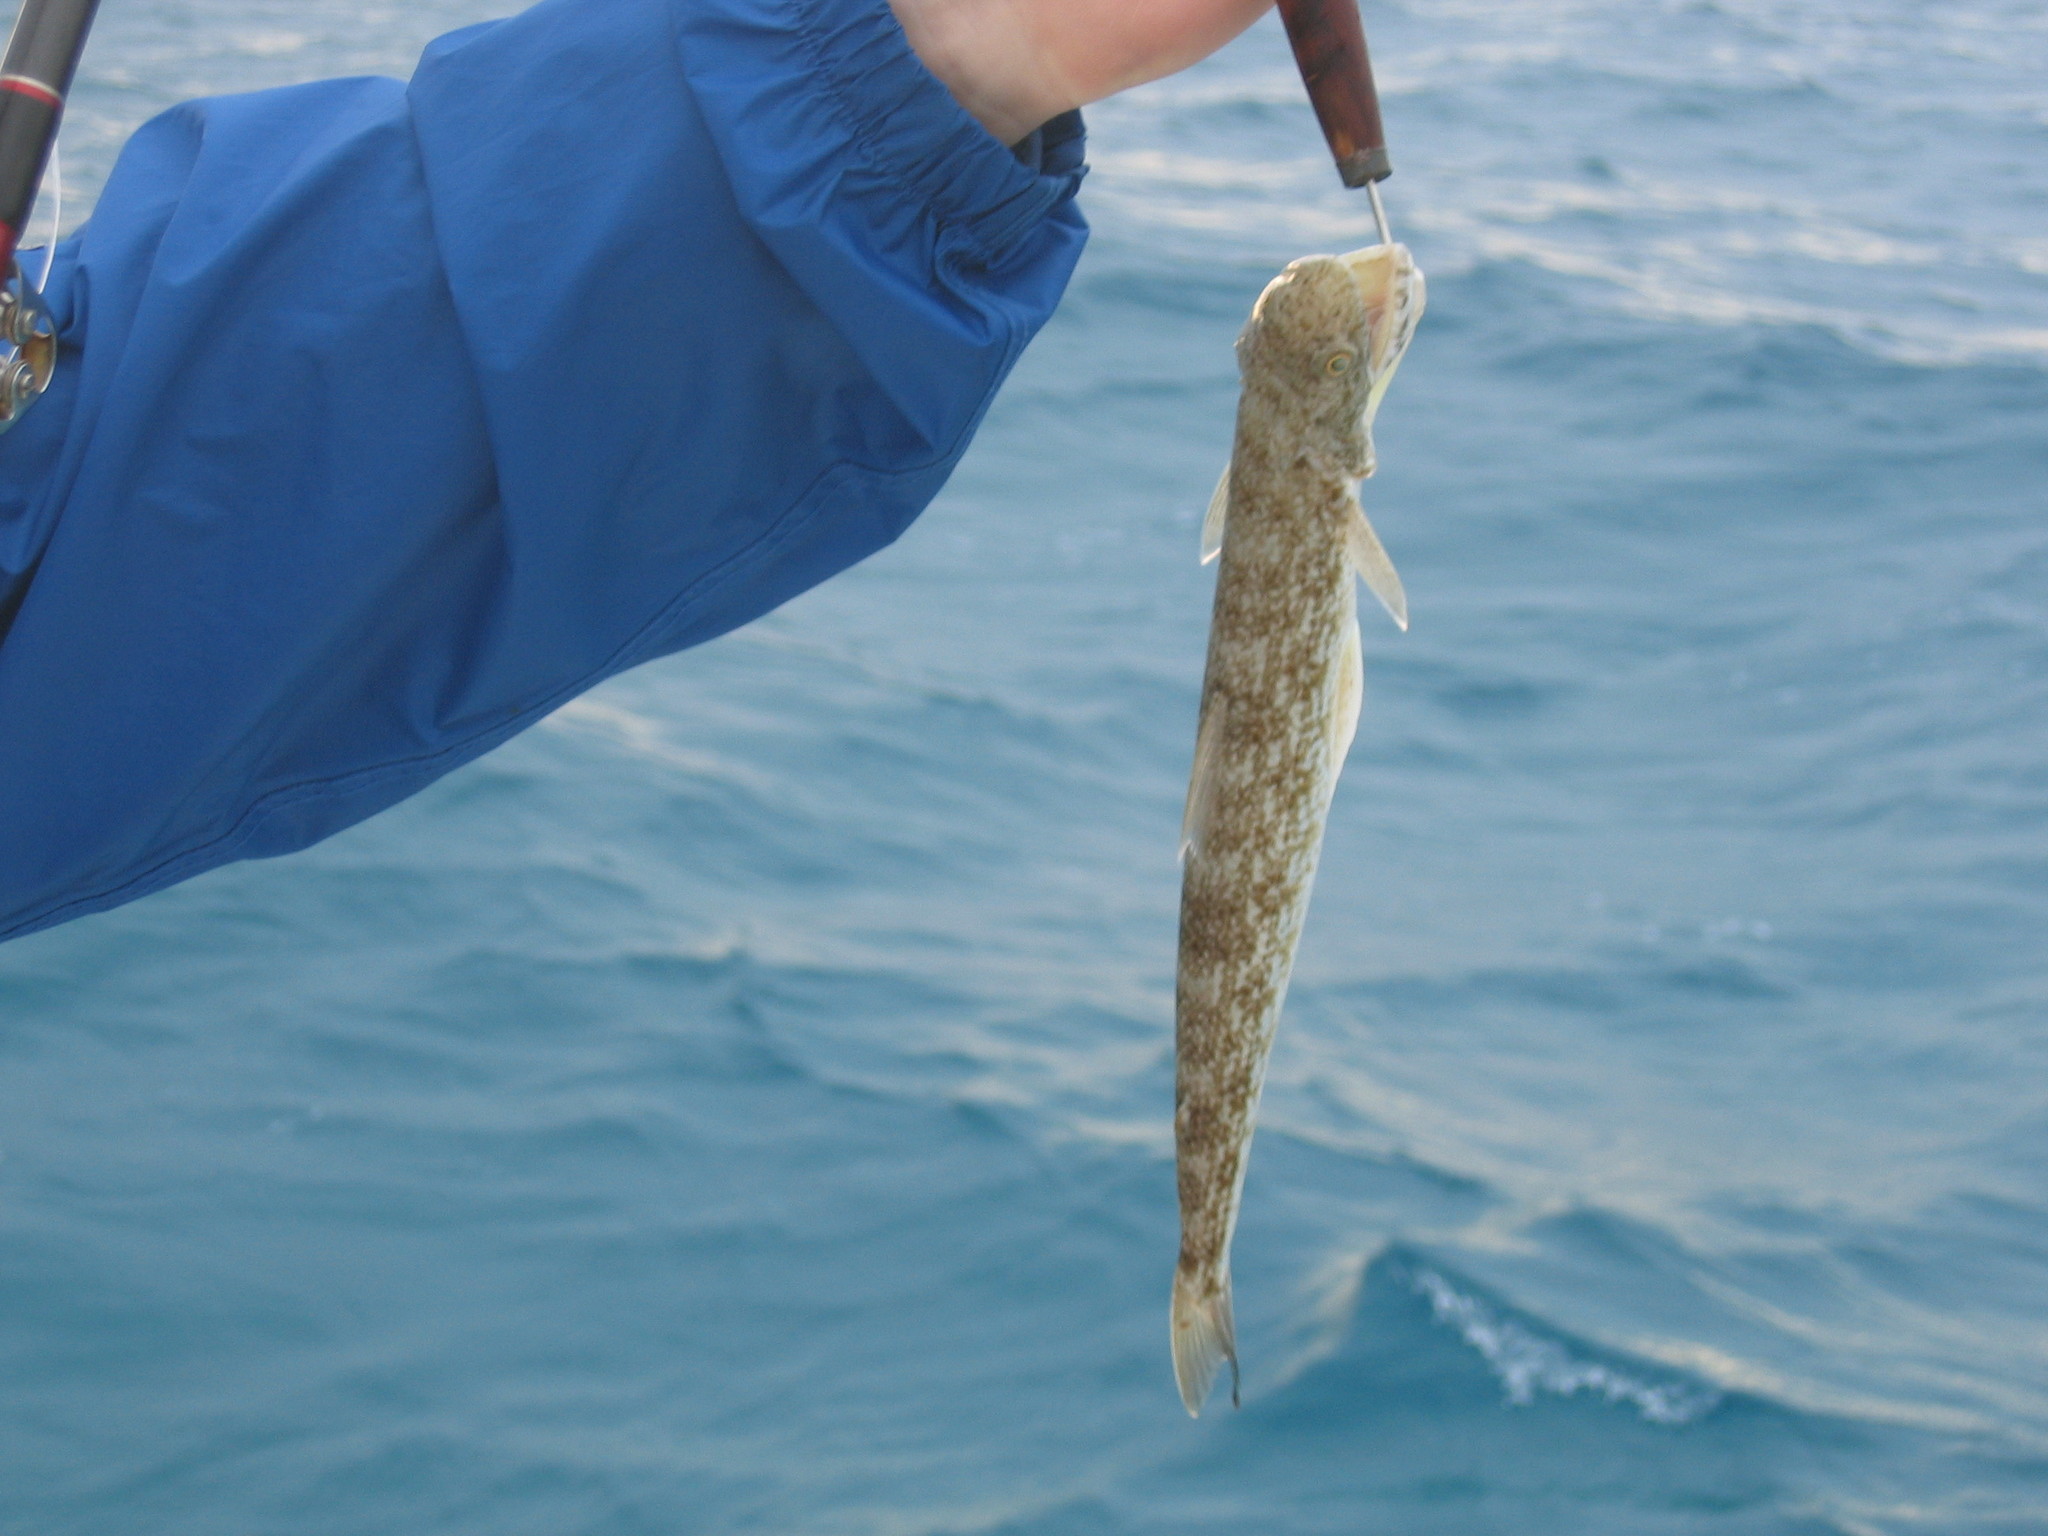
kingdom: Animalia
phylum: Chordata
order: Aulopiformes
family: Synodontidae
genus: Synodus
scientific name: Synodus foetens
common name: Inshore lizardfish
